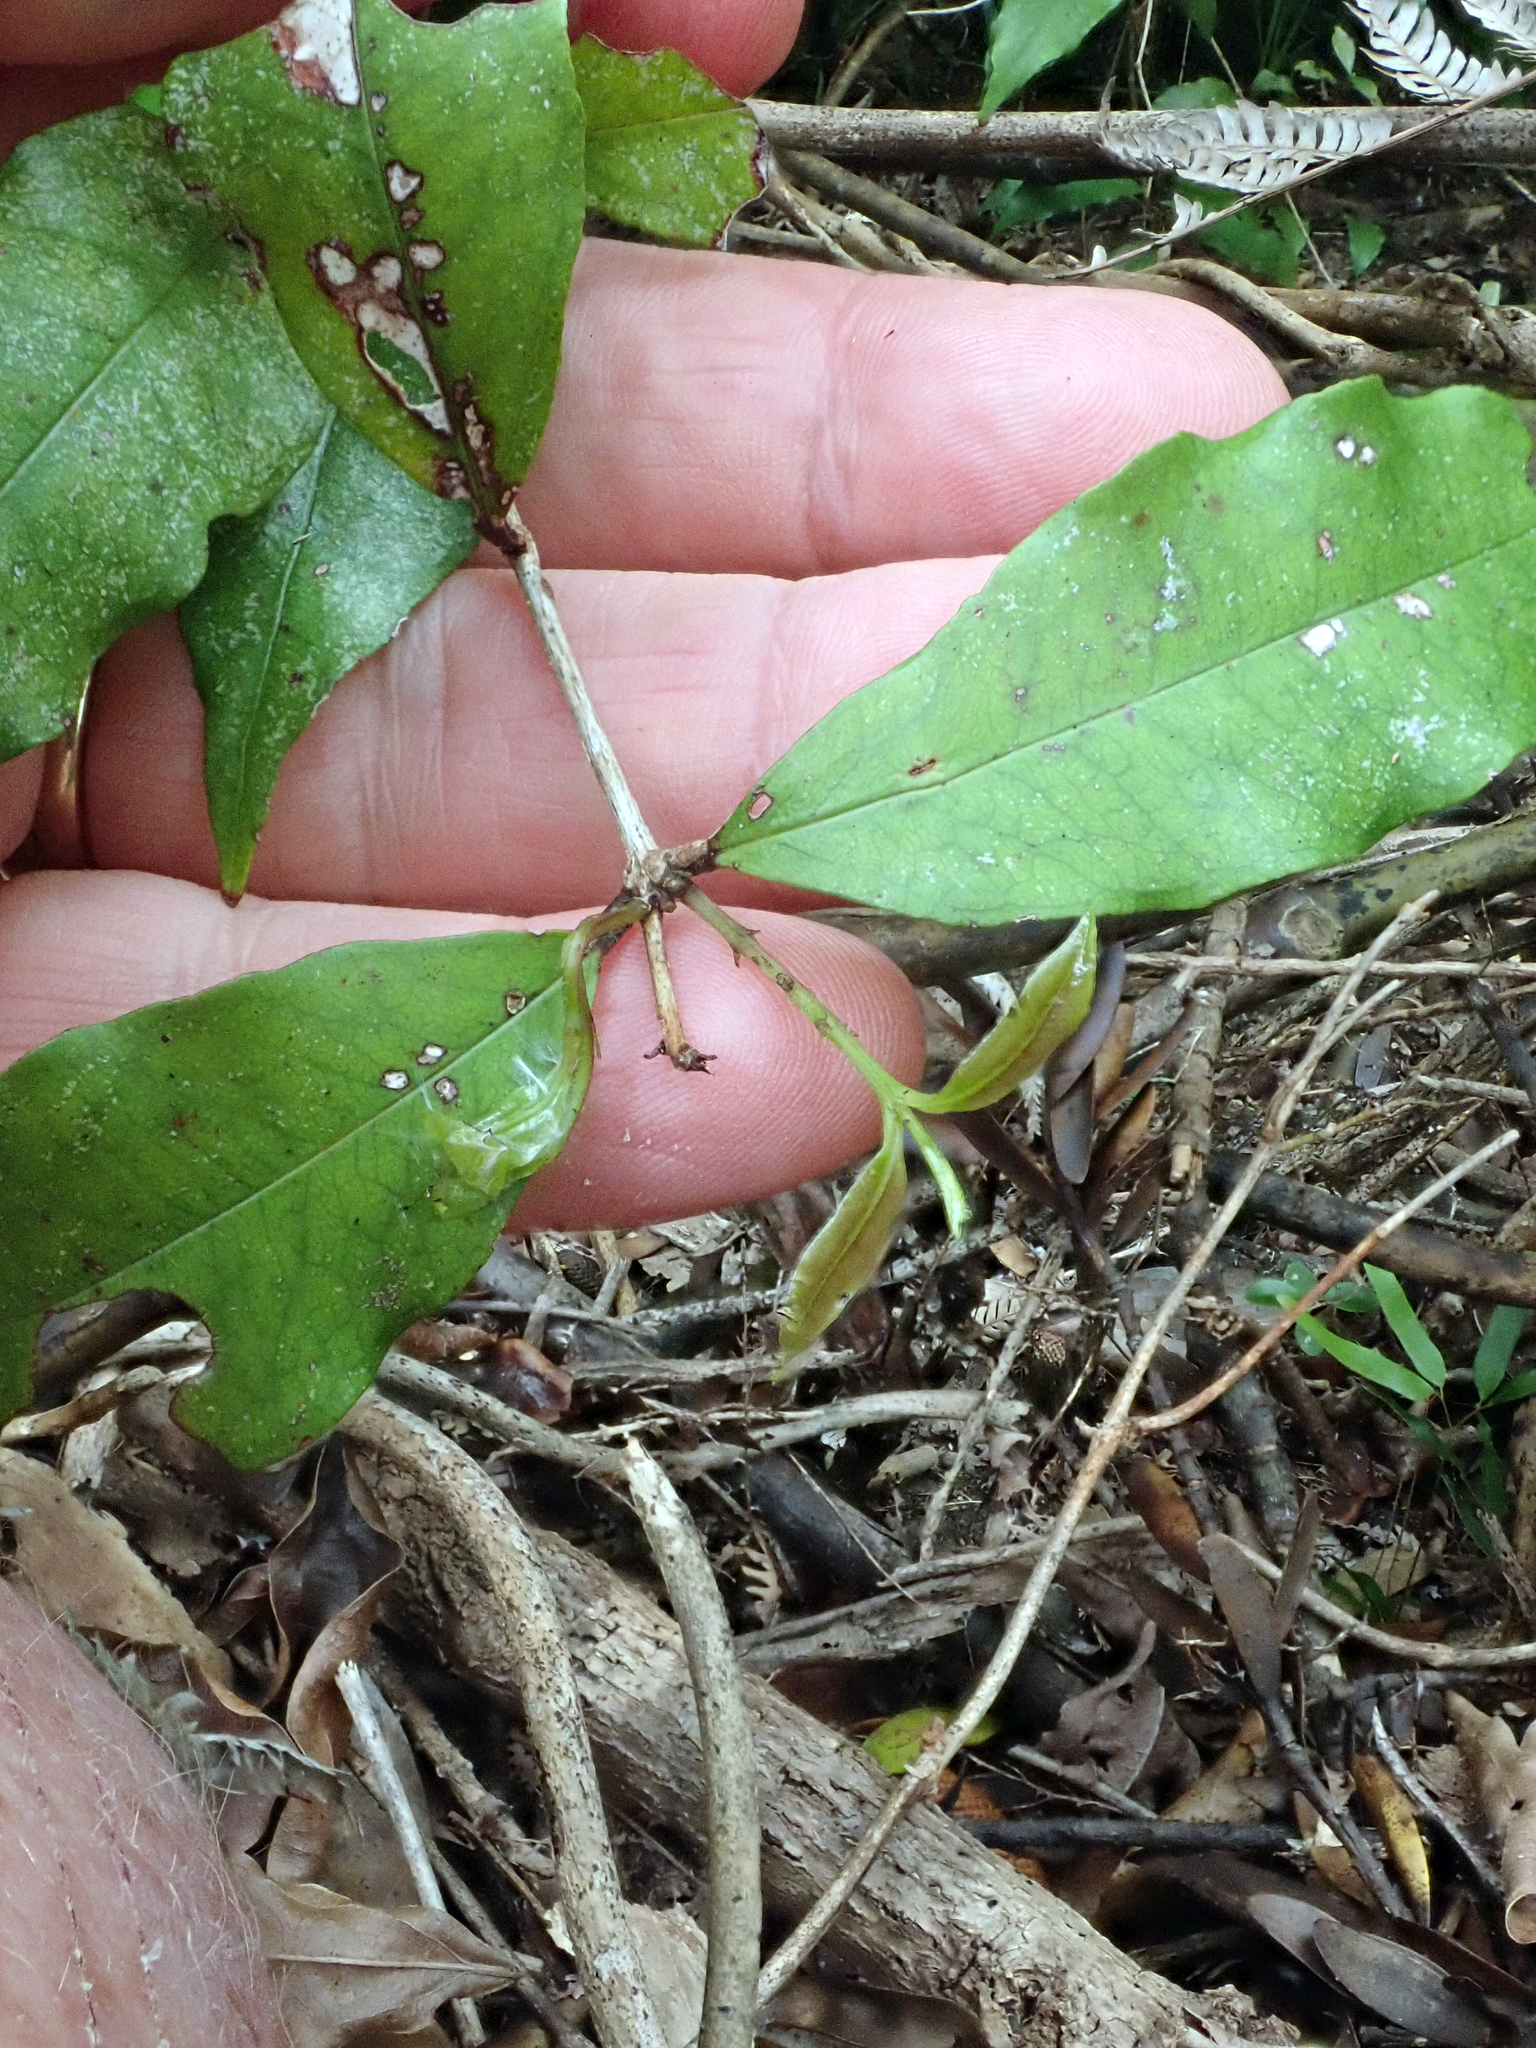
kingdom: Plantae
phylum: Tracheophyta
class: Magnoliopsida
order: Myrtales
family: Myrtaceae
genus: Syzygium
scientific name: Syzygium maire
